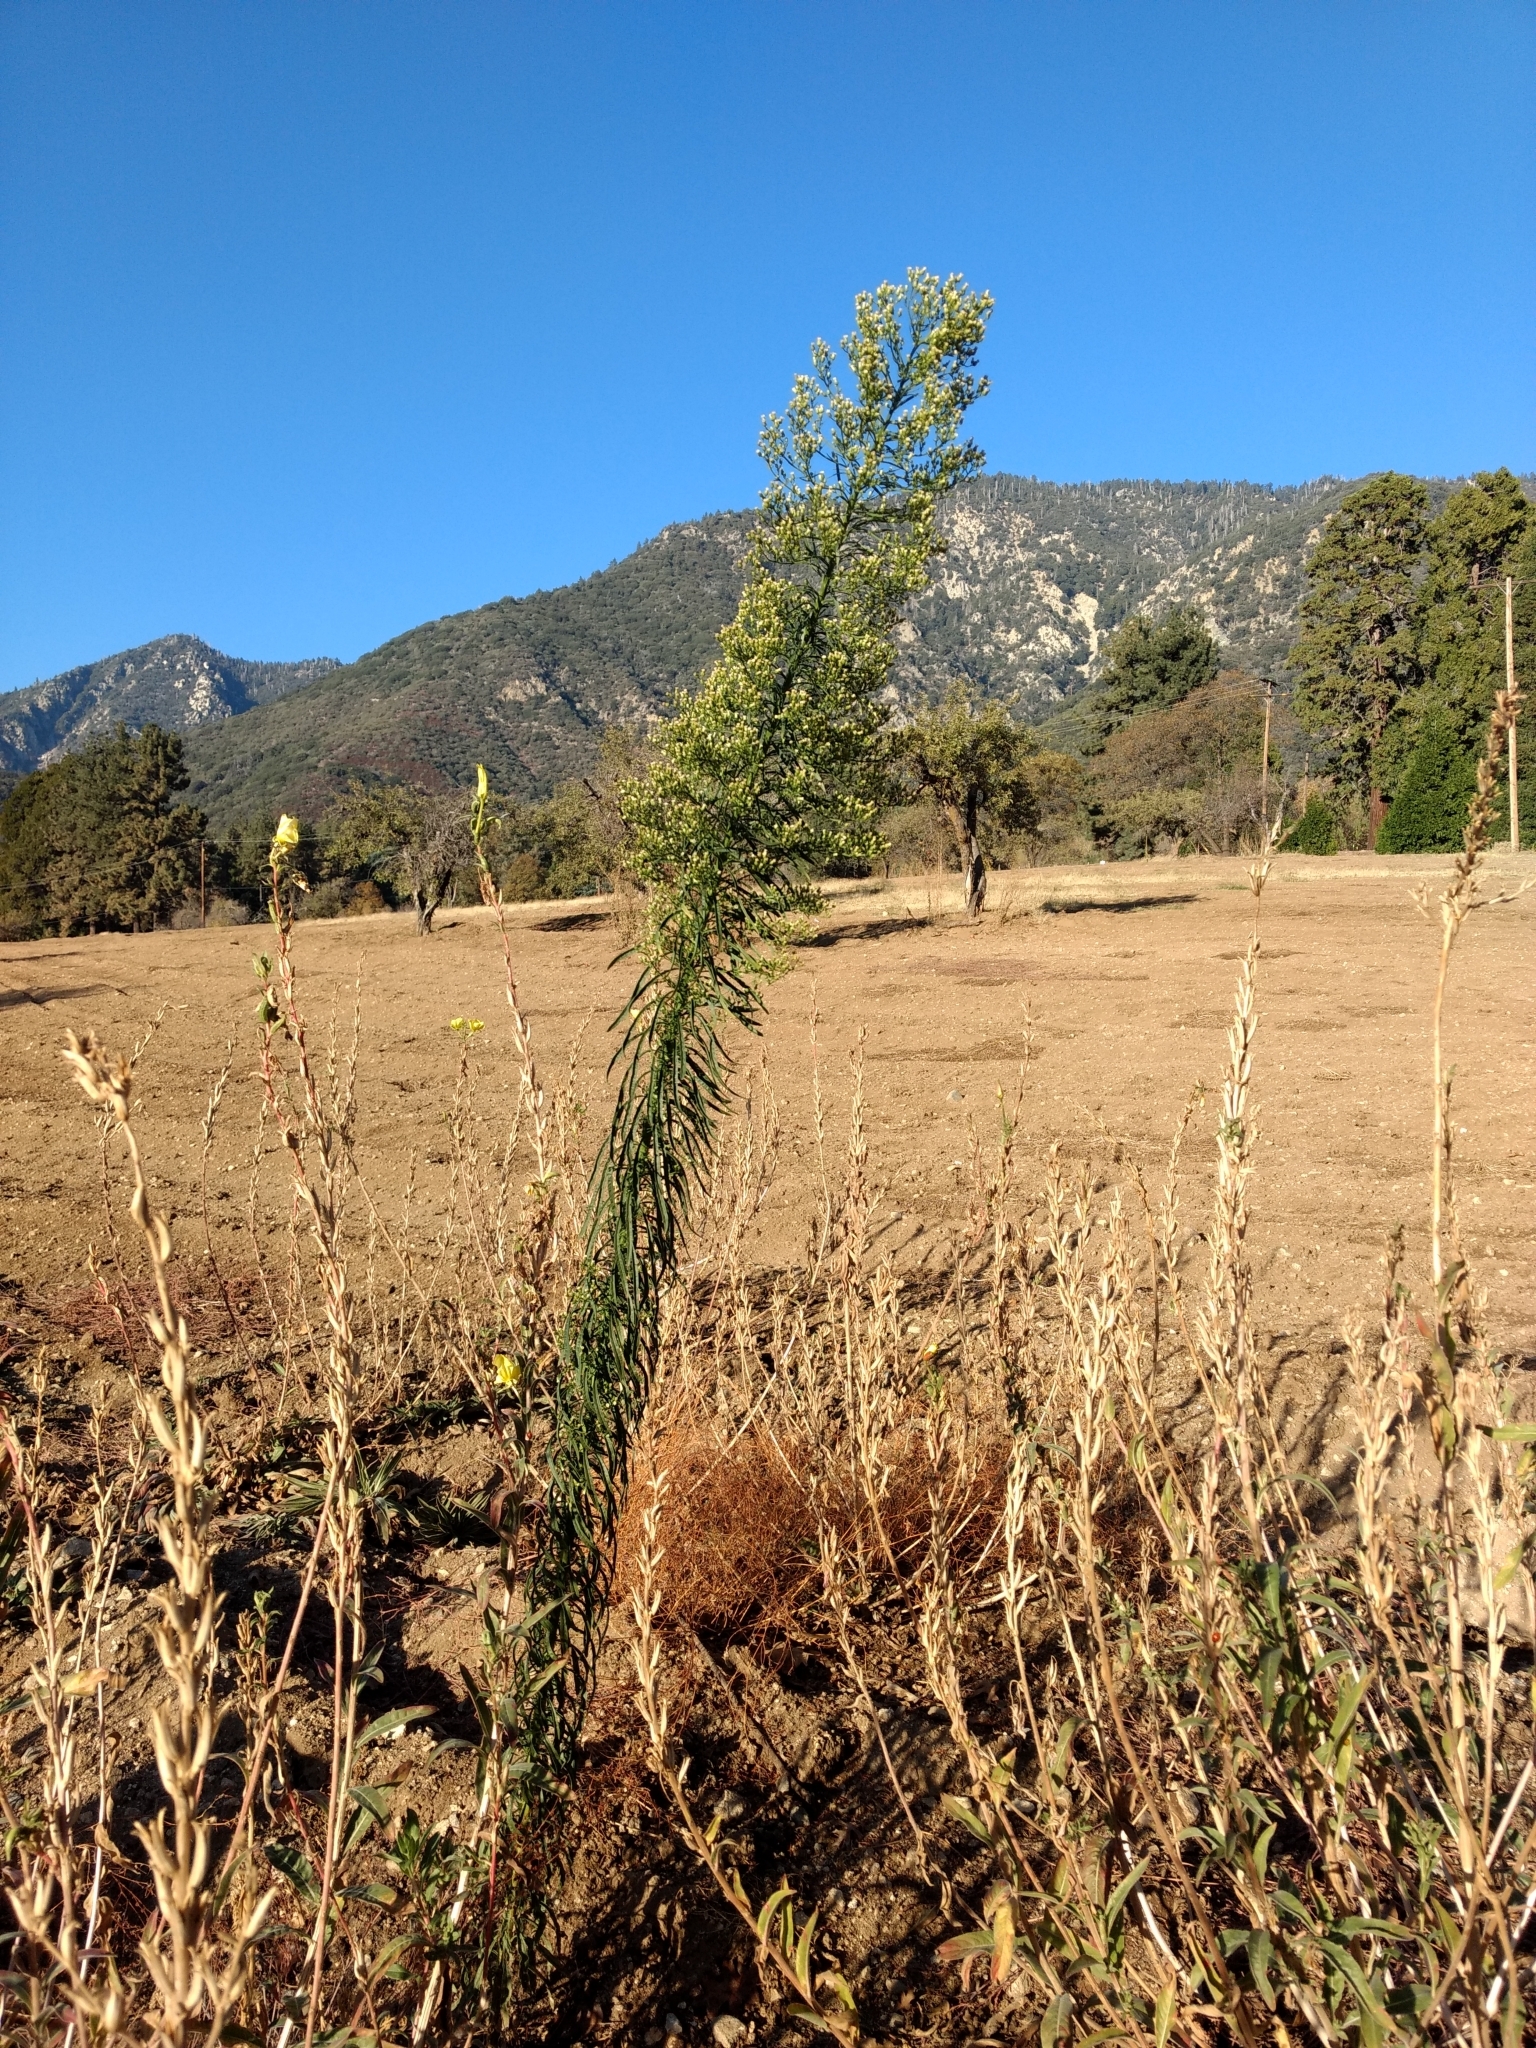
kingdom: Plantae
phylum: Tracheophyta
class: Magnoliopsida
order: Asterales
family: Asteraceae
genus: Erigeron
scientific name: Erigeron canadensis
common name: Canadian fleabane
